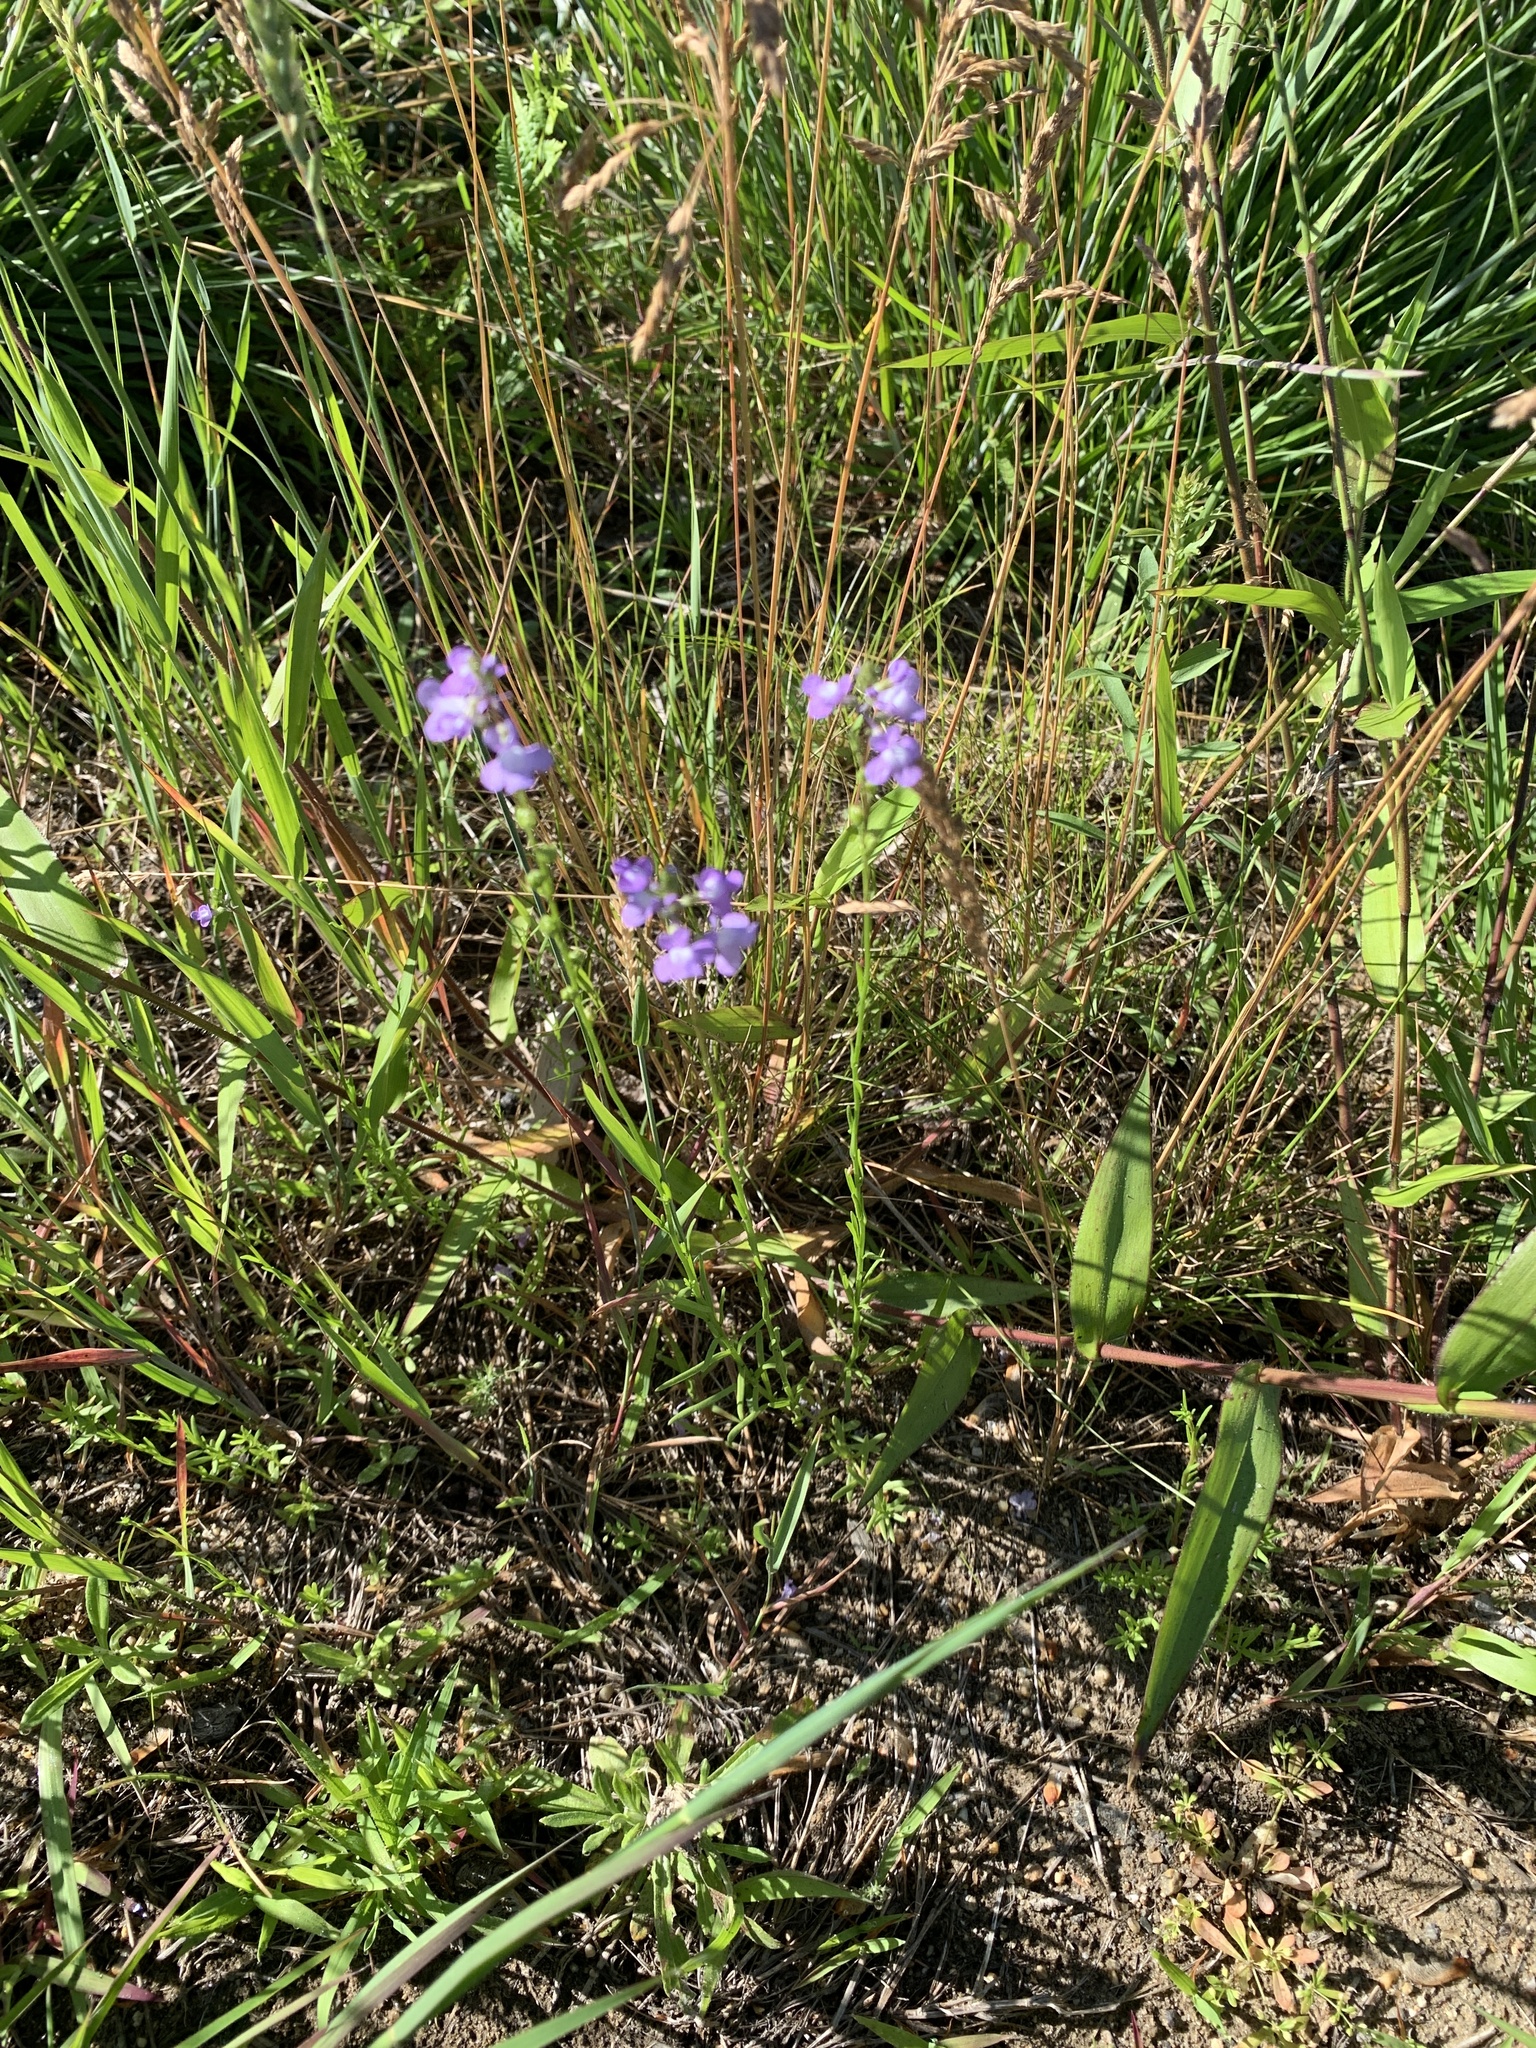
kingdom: Plantae
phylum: Tracheophyta
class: Magnoliopsida
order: Lamiales
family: Plantaginaceae
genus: Nuttallanthus
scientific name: Nuttallanthus canadensis
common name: Blue toadflax
